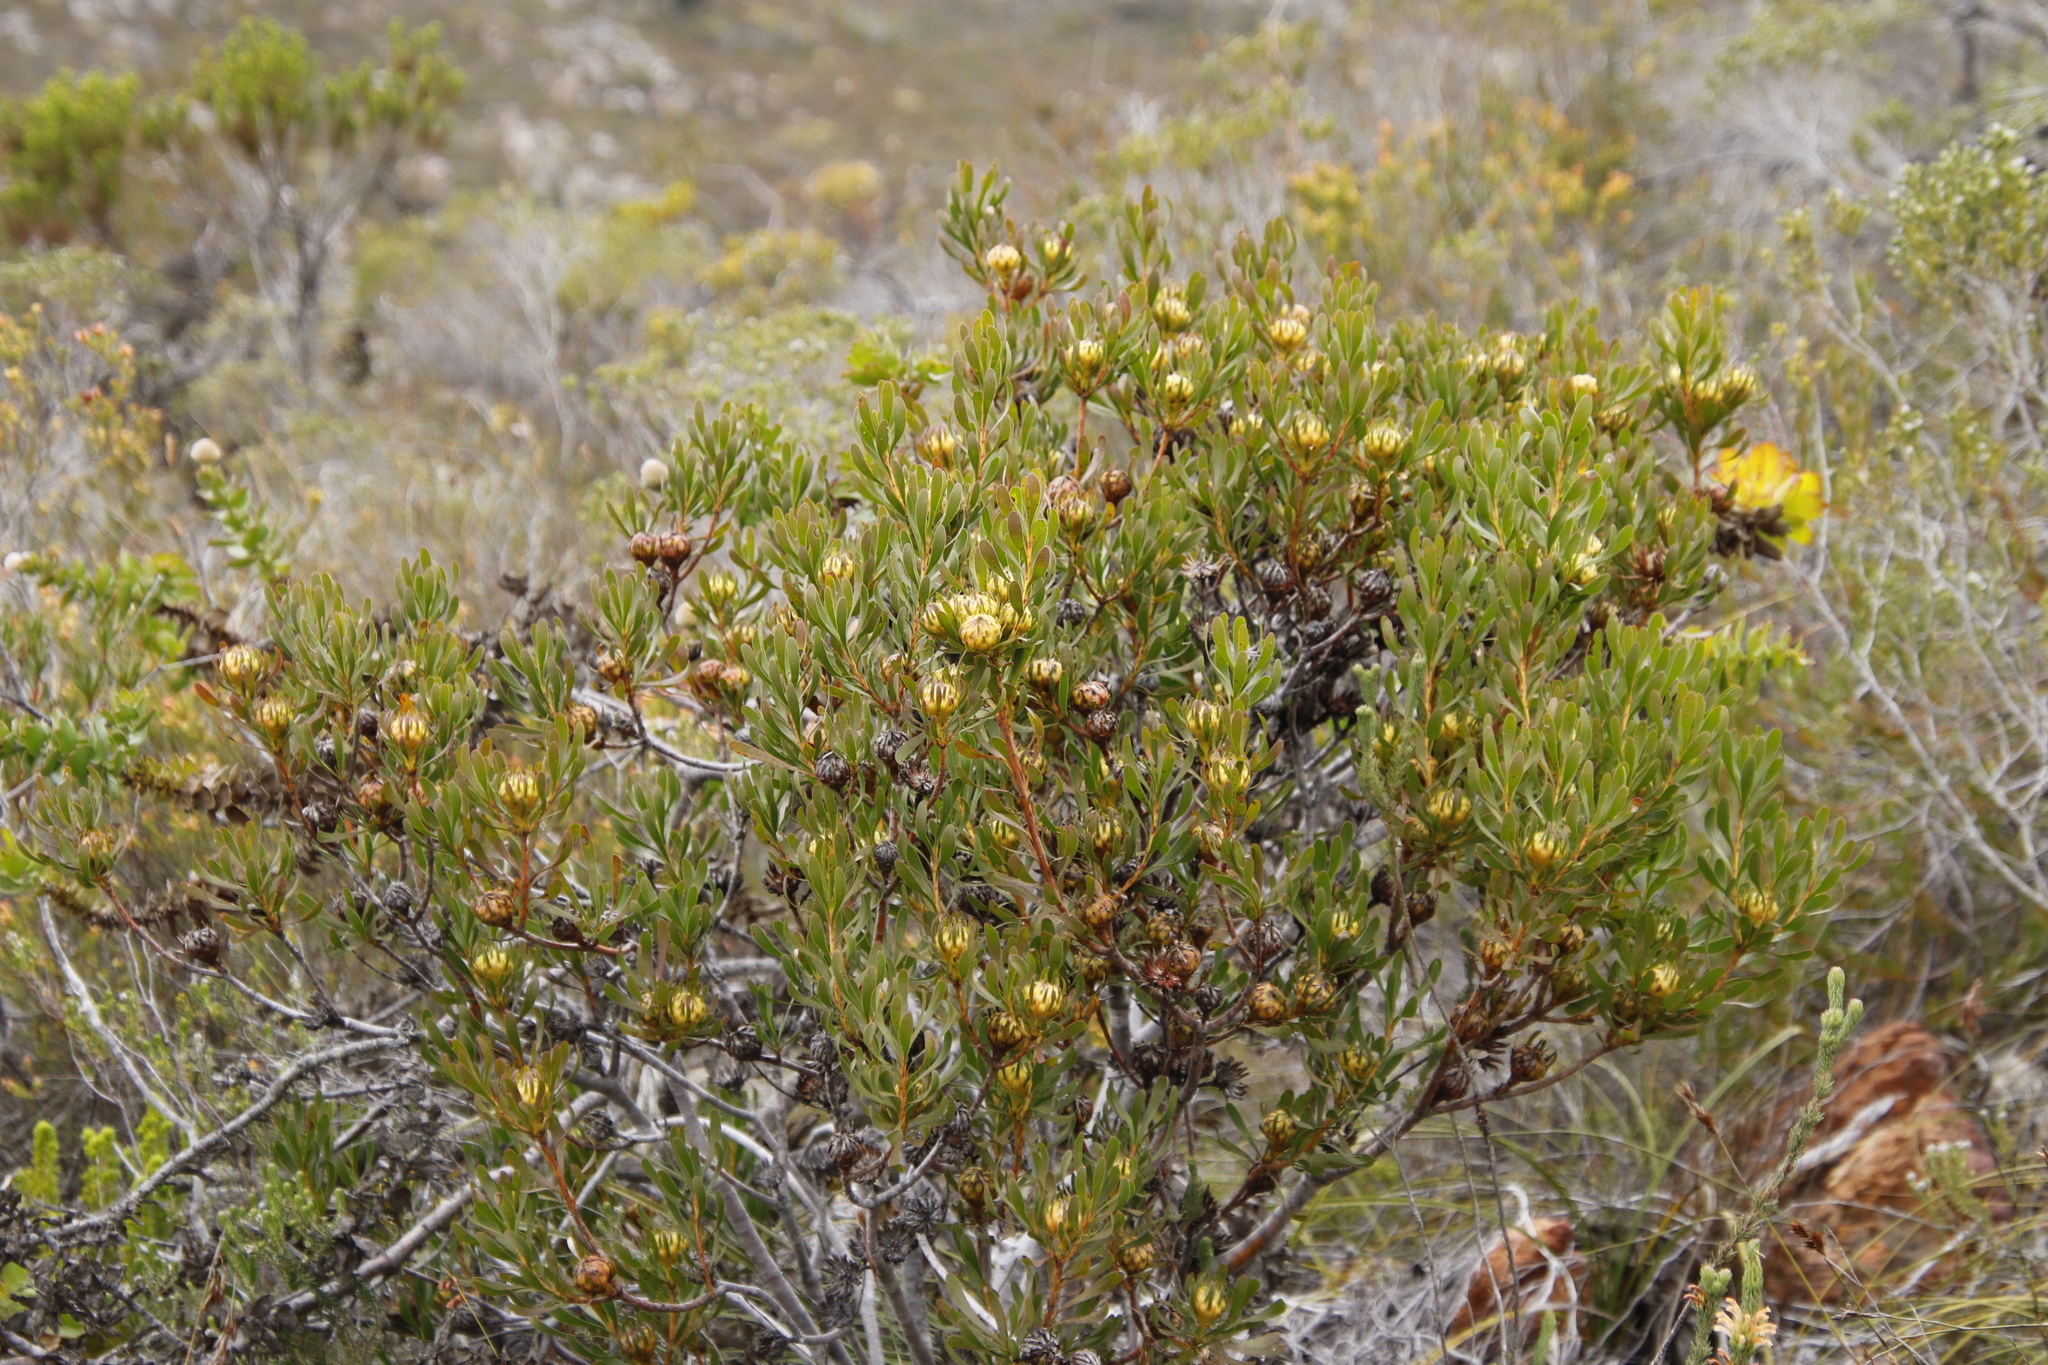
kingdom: Plantae
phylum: Tracheophyta
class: Magnoliopsida
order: Proteales
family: Proteaceae
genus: Aulax
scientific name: Aulax umbellata
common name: Broad-leaf featherbush
